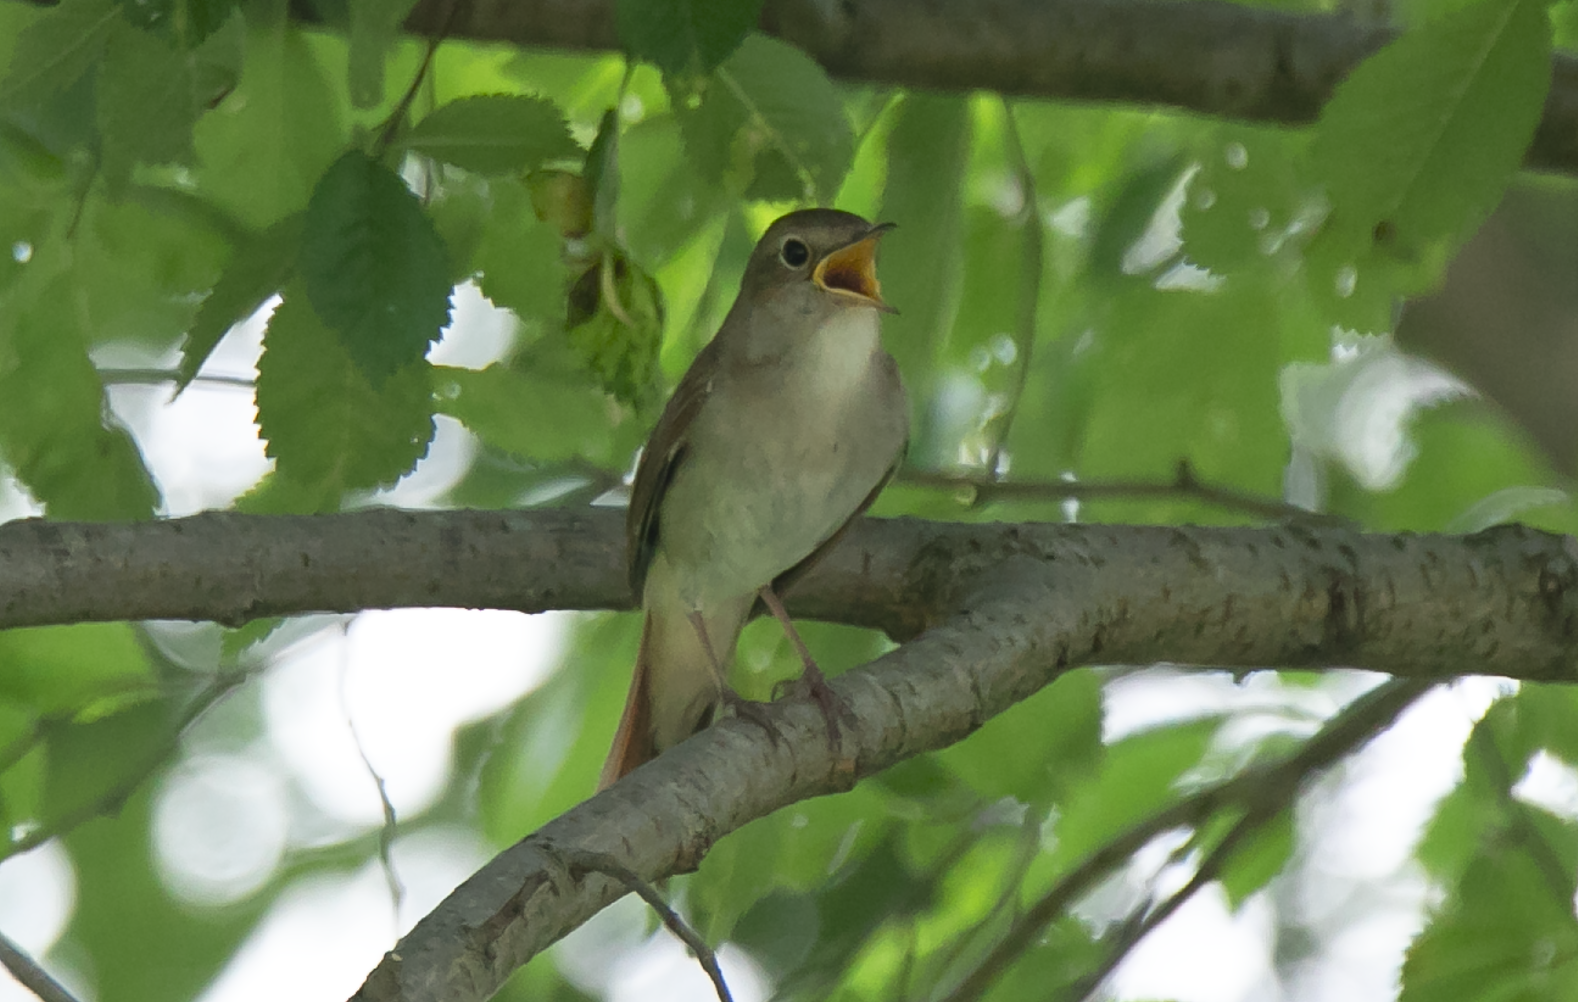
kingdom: Animalia
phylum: Chordata
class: Aves
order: Passeriformes
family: Muscicapidae
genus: Luscinia
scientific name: Luscinia megarhynchos
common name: Common nightingale
